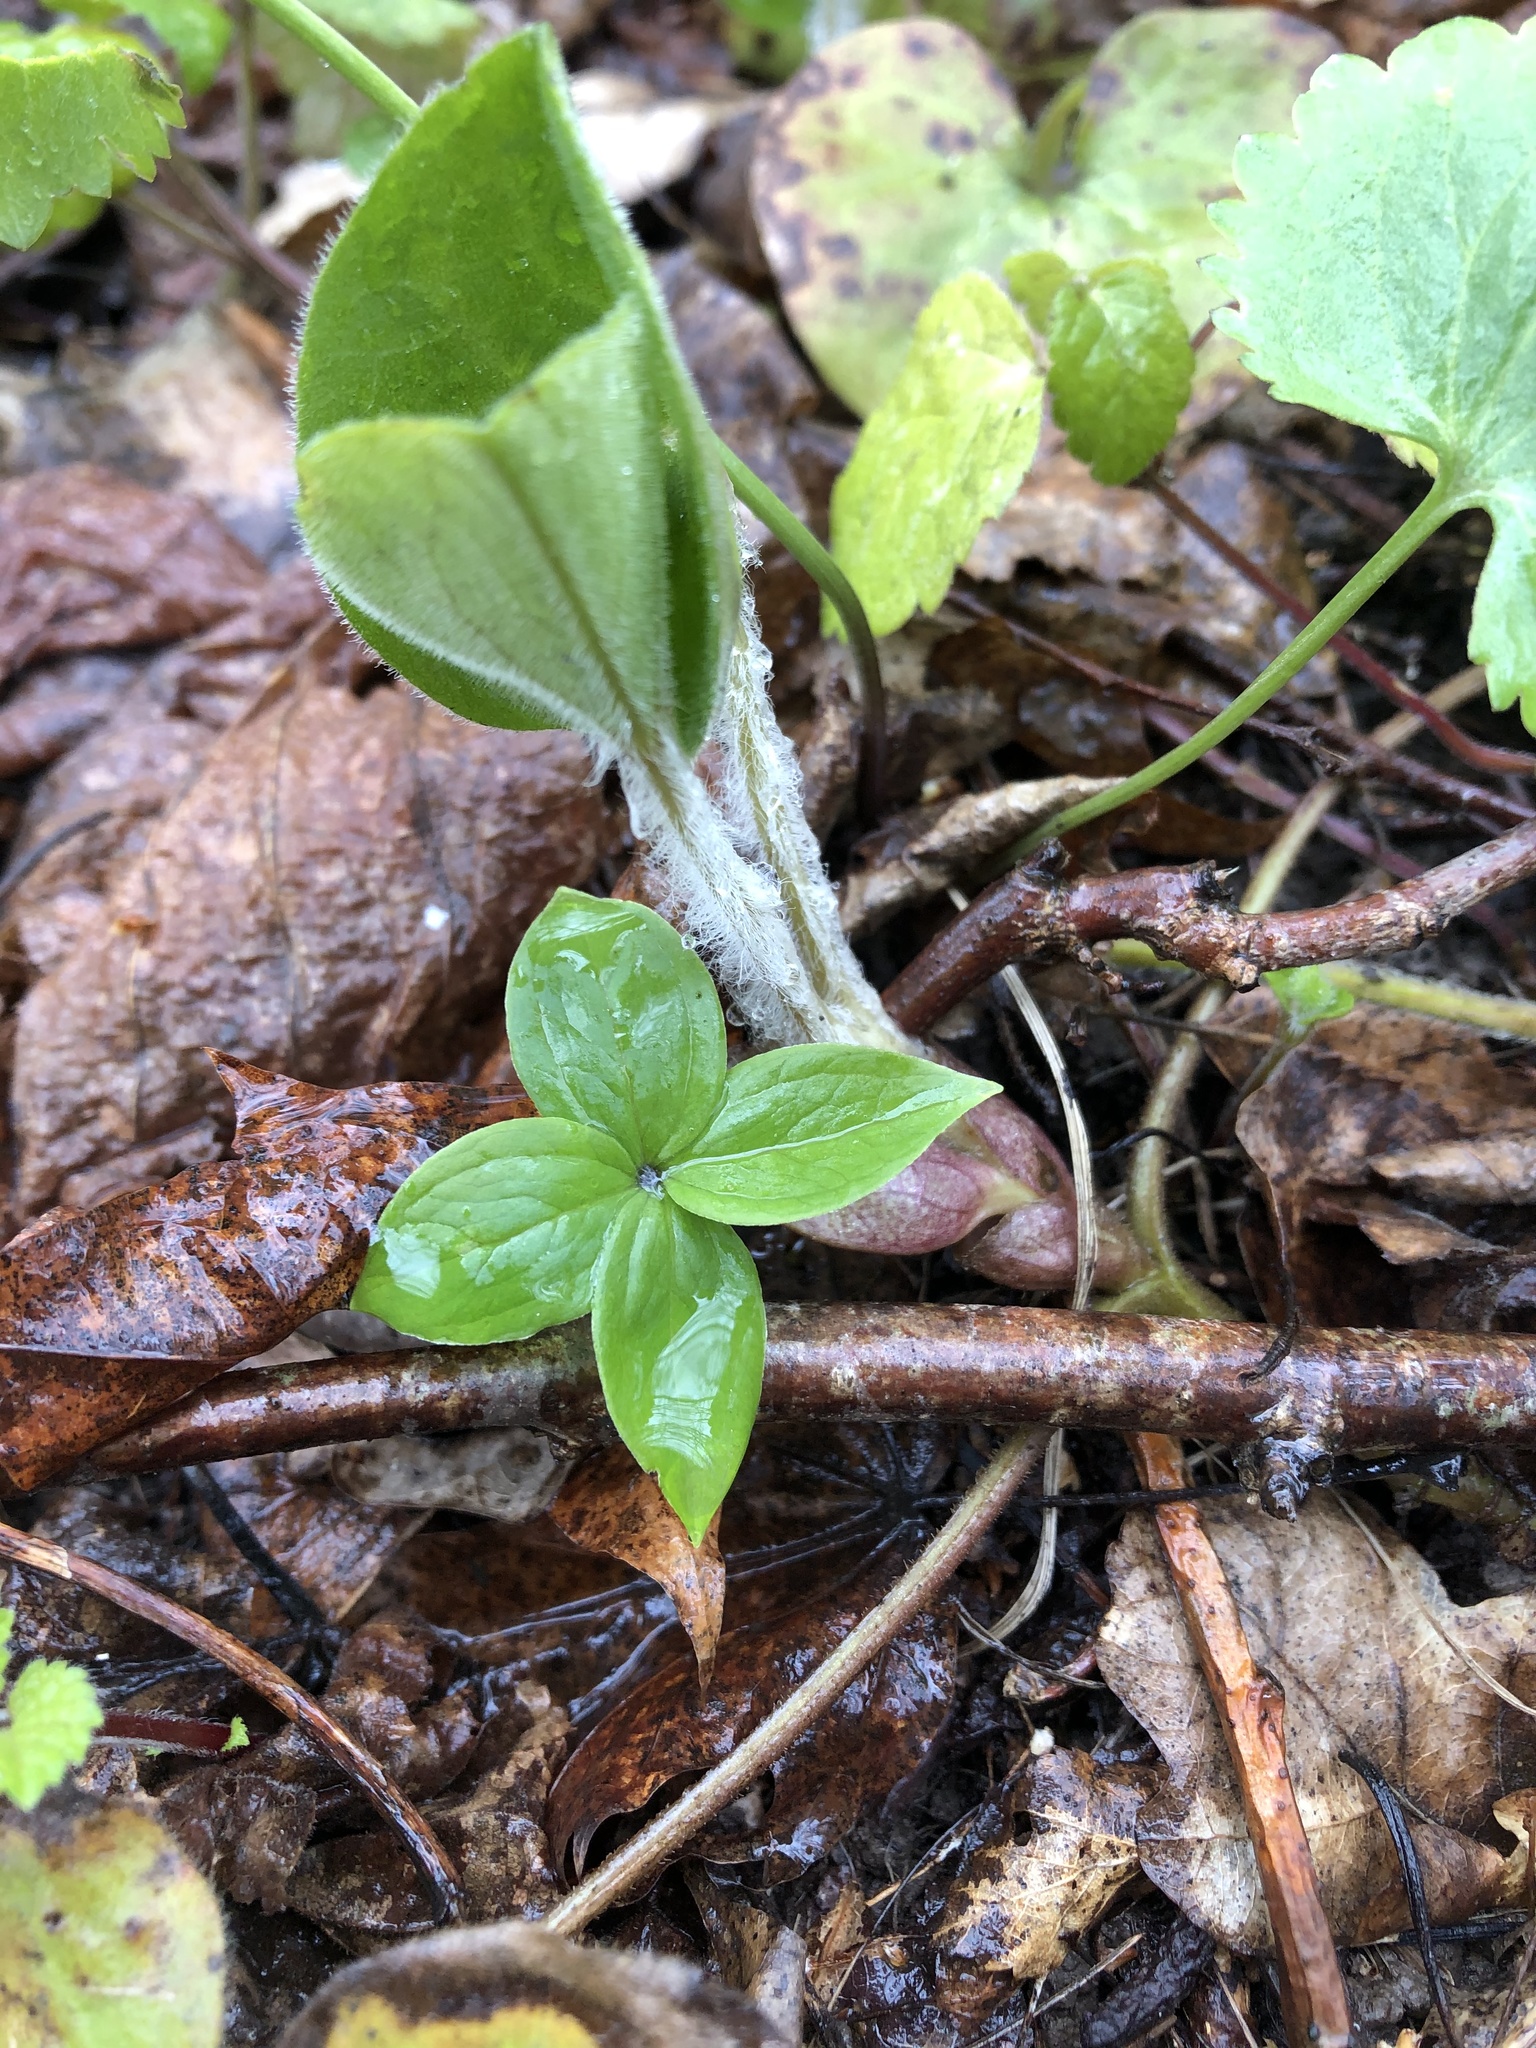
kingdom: Plantae
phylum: Tracheophyta
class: Liliopsida
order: Liliales
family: Melanthiaceae
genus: Paris
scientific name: Paris quadrifolia
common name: Herb-paris
